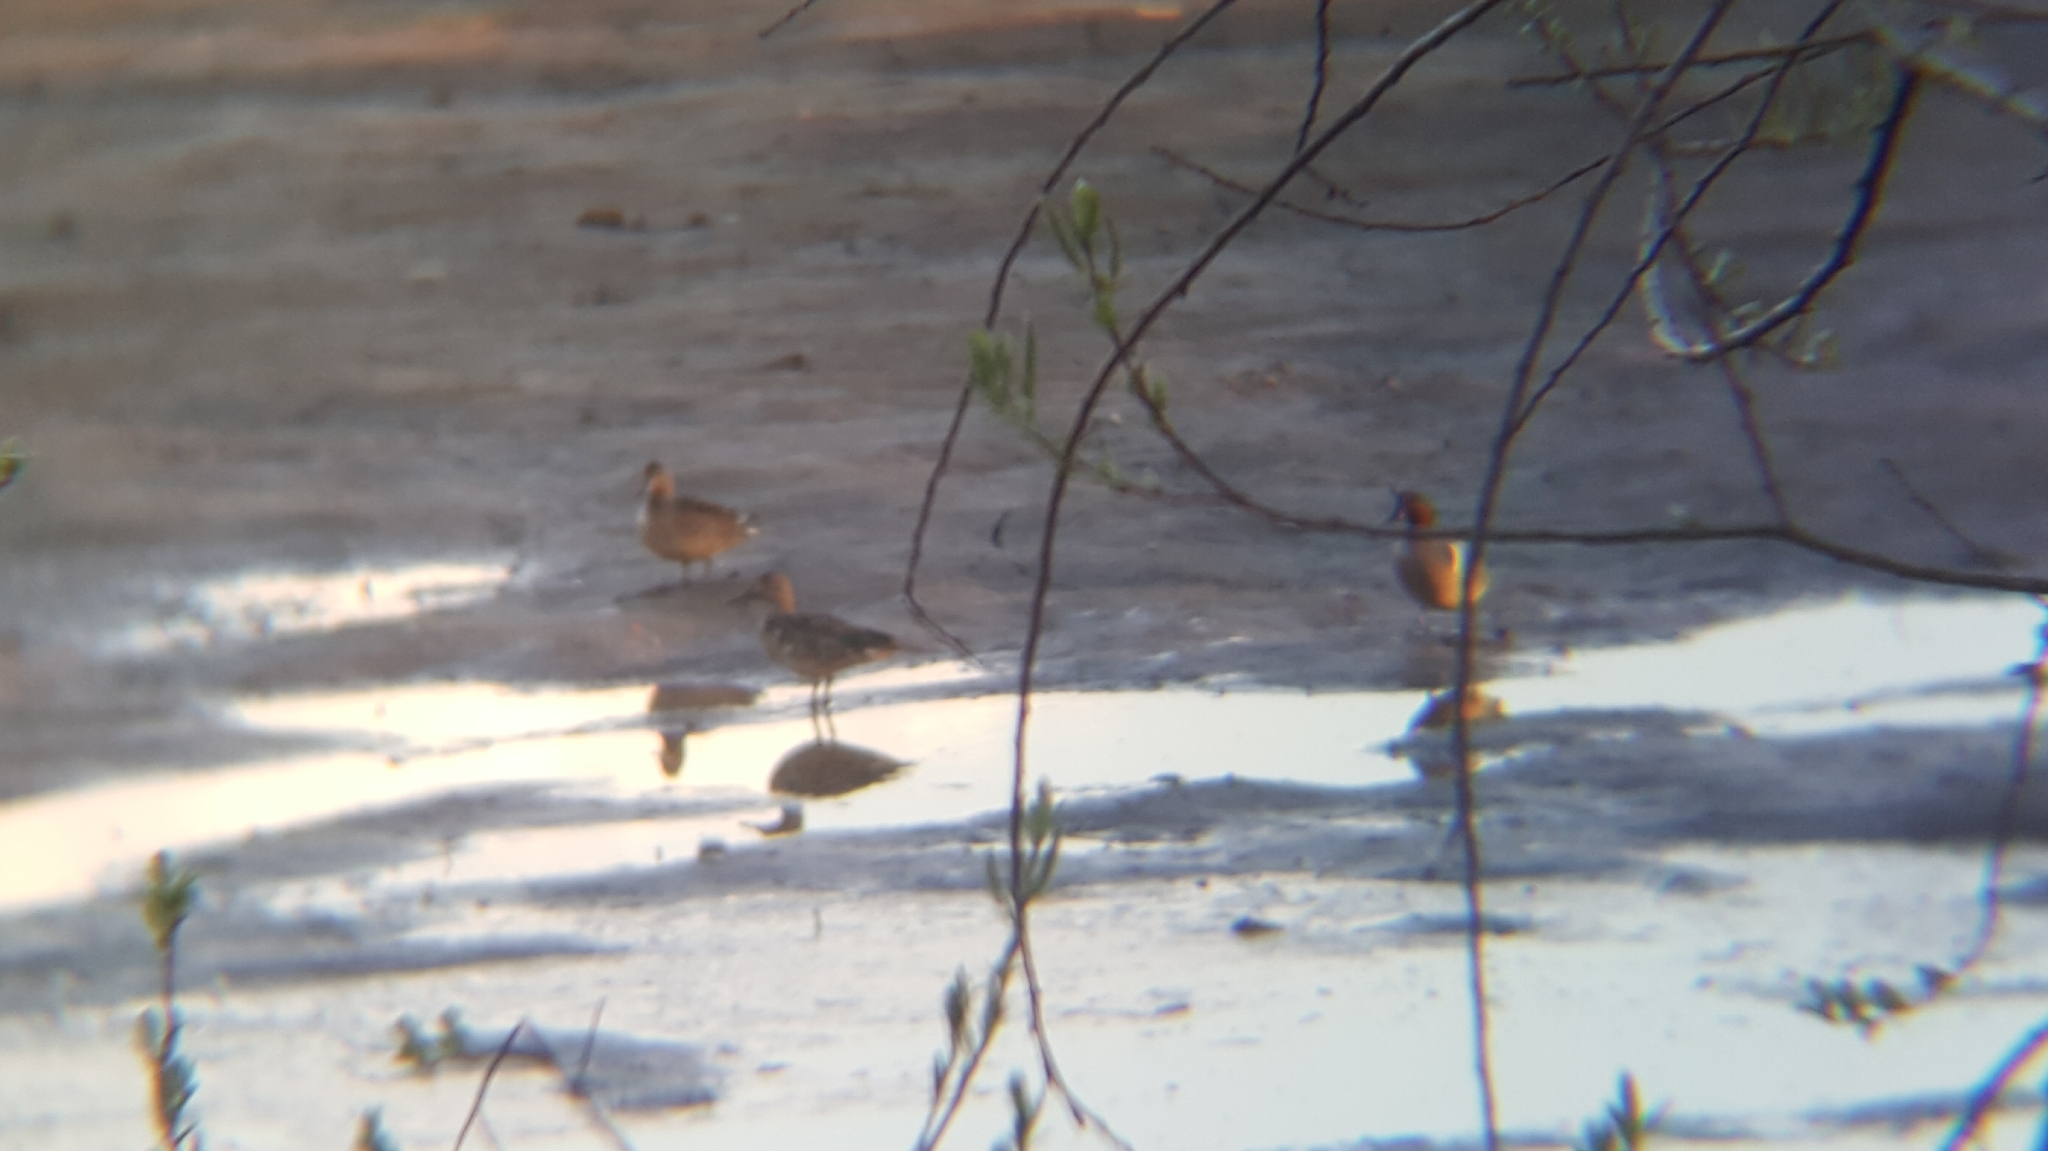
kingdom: Animalia
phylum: Chordata
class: Aves
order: Anseriformes
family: Anatidae
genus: Anas
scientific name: Anas crecca
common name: Eurasian teal
